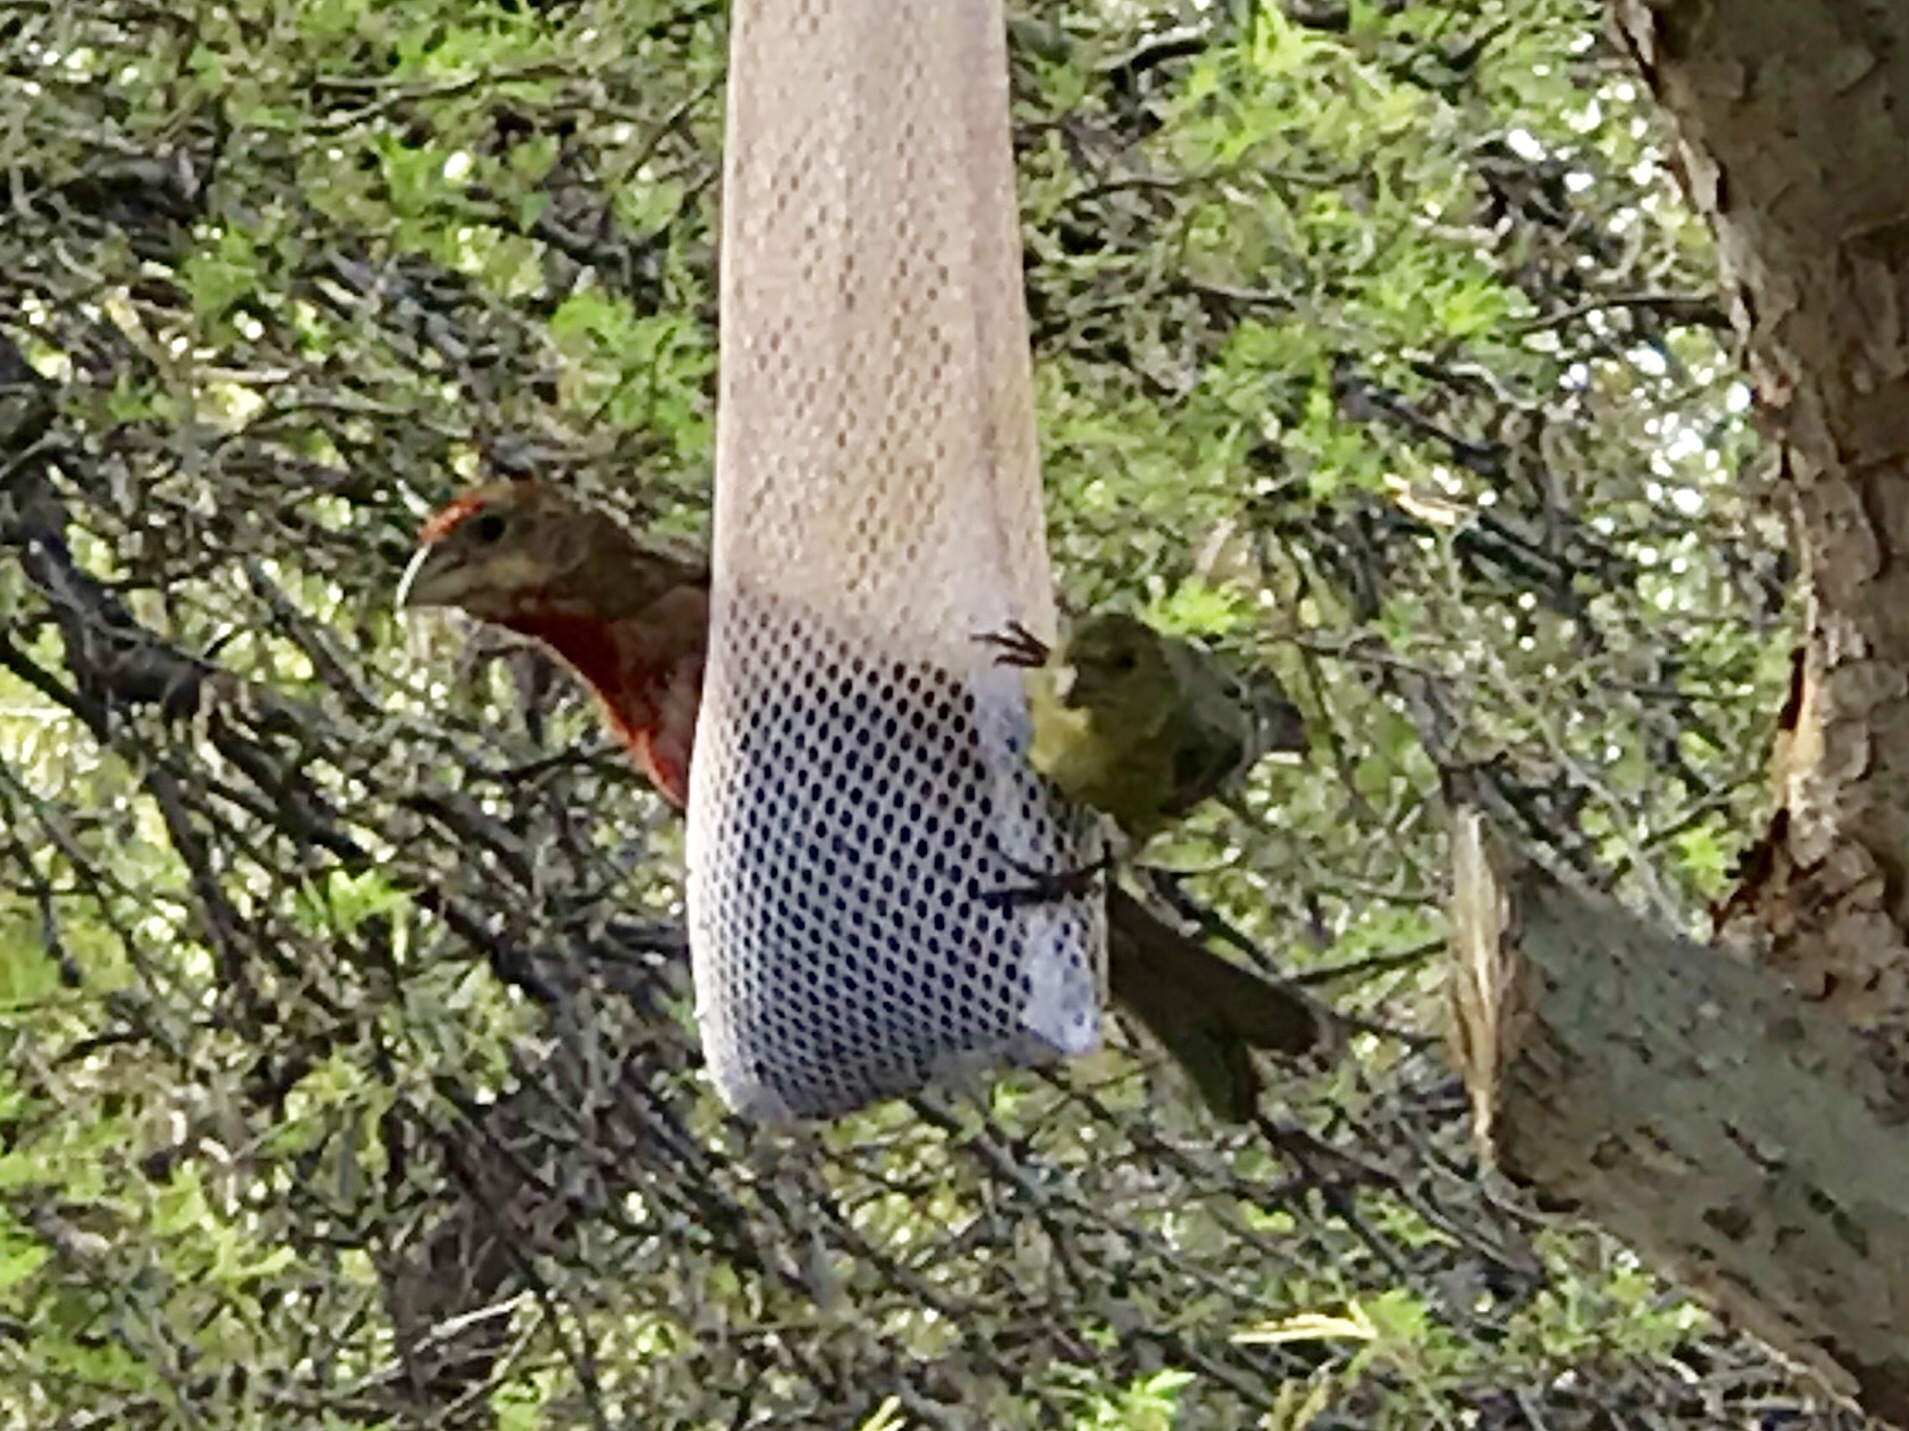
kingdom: Animalia
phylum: Chordata
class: Aves
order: Passeriformes
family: Cardinalidae
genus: Piranga
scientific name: Piranga rubra
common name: Summer tanager
